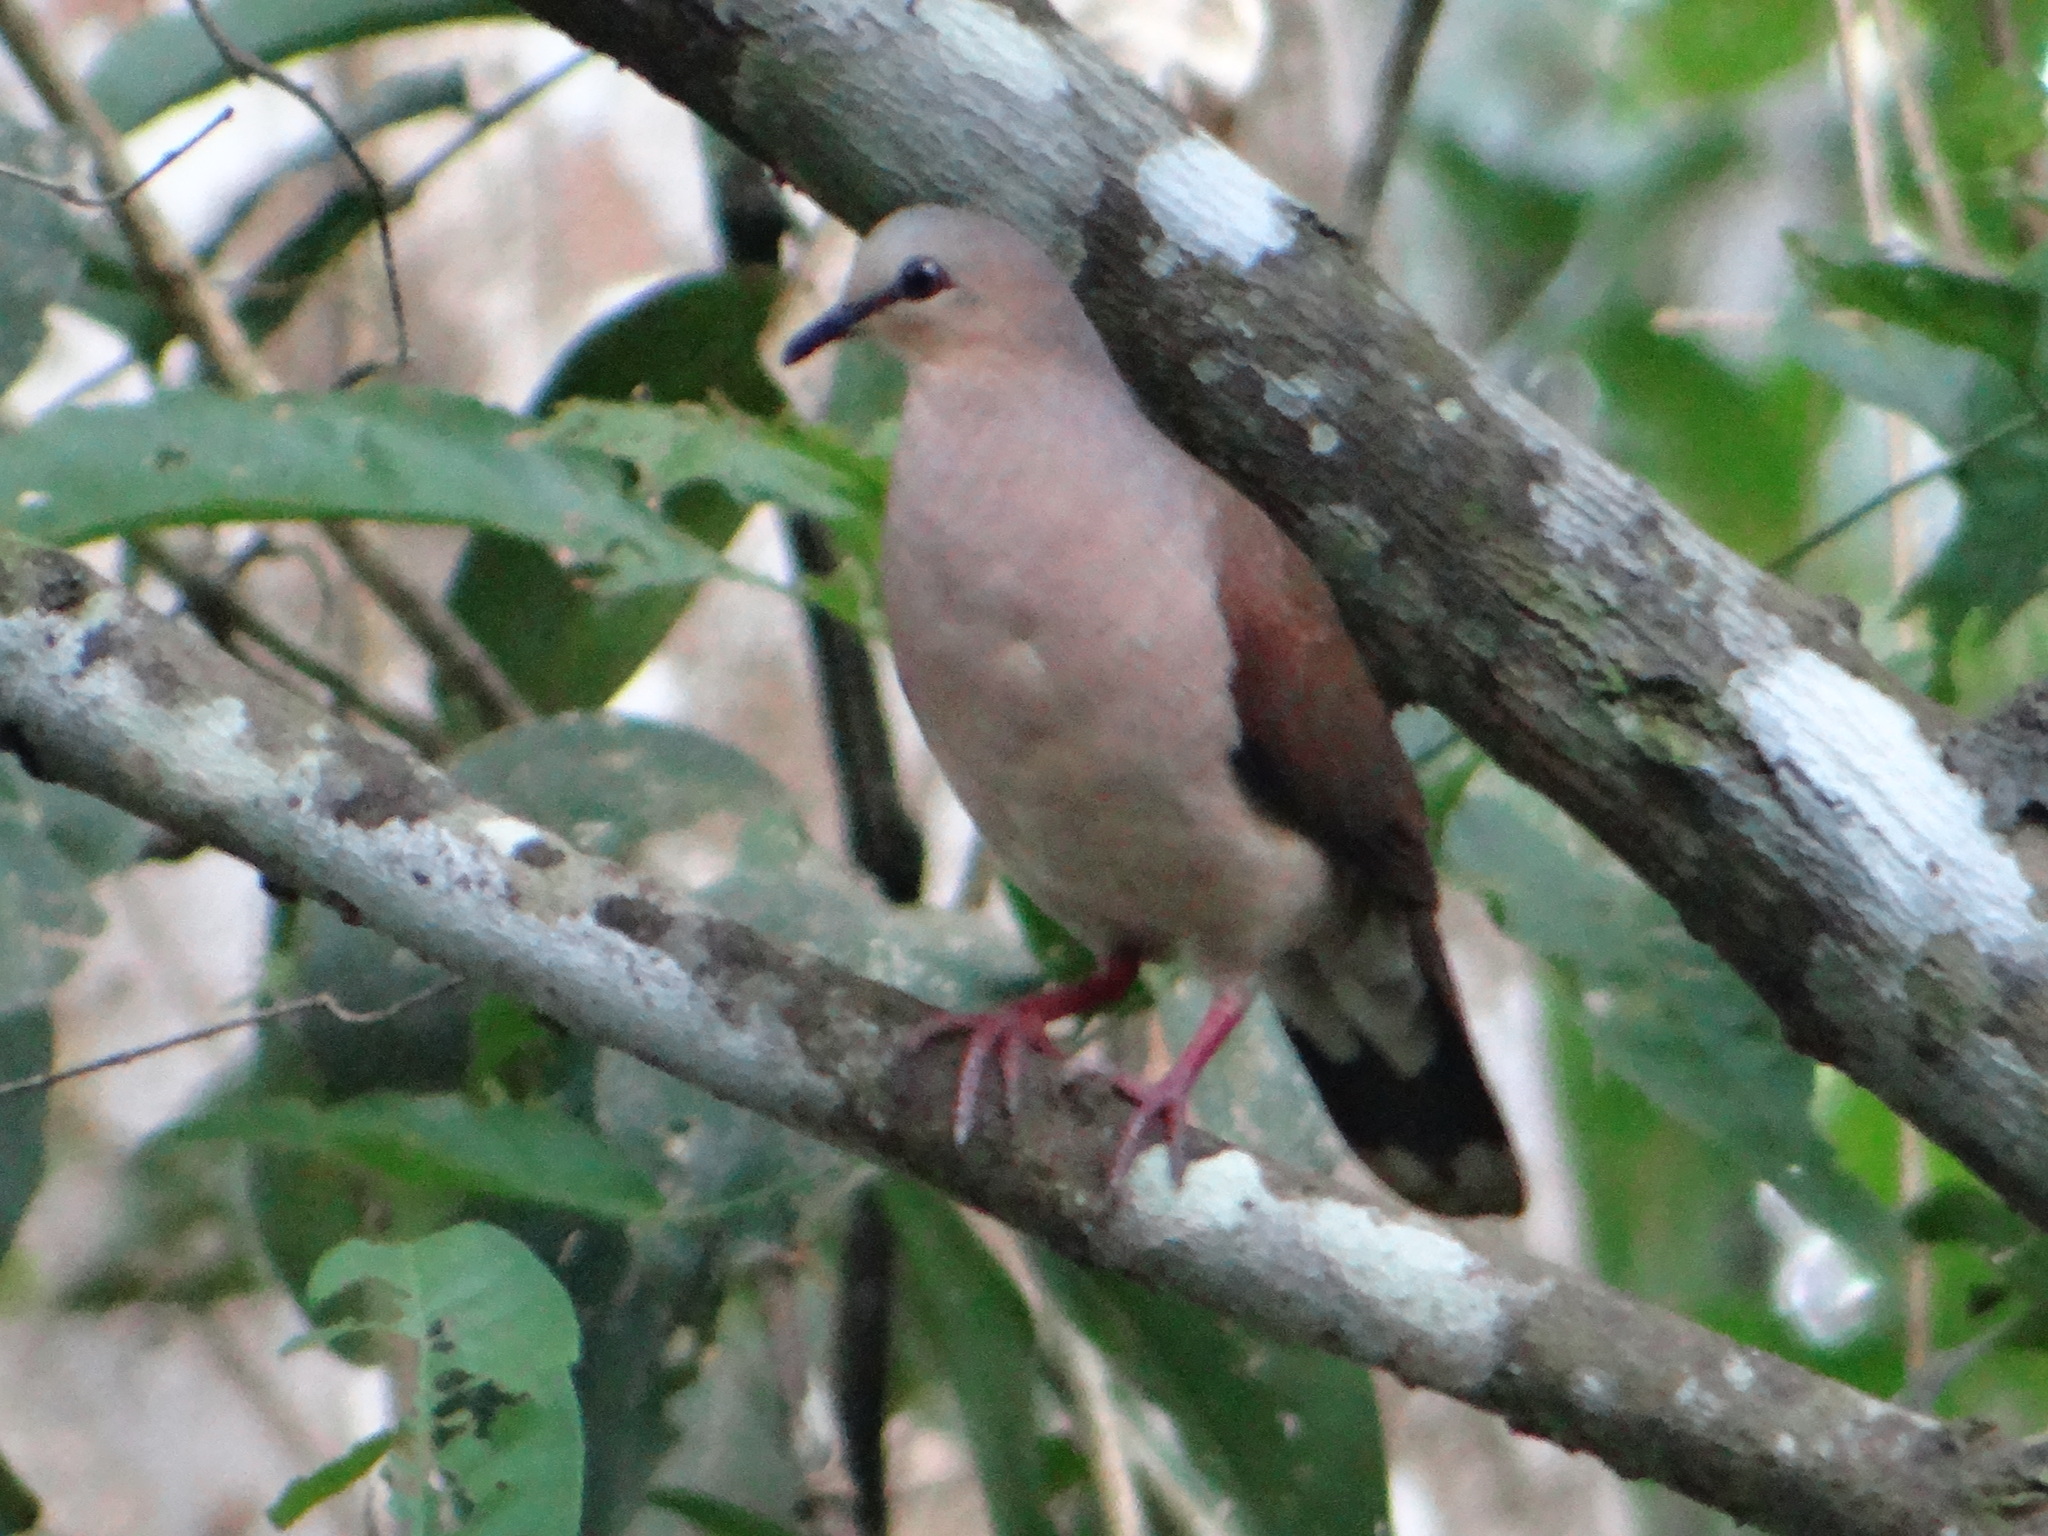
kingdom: Animalia
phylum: Chordata
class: Aves
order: Columbiformes
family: Columbidae
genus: Leptotila
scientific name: Leptotila rufaxilla
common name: Grey-fronted dove
